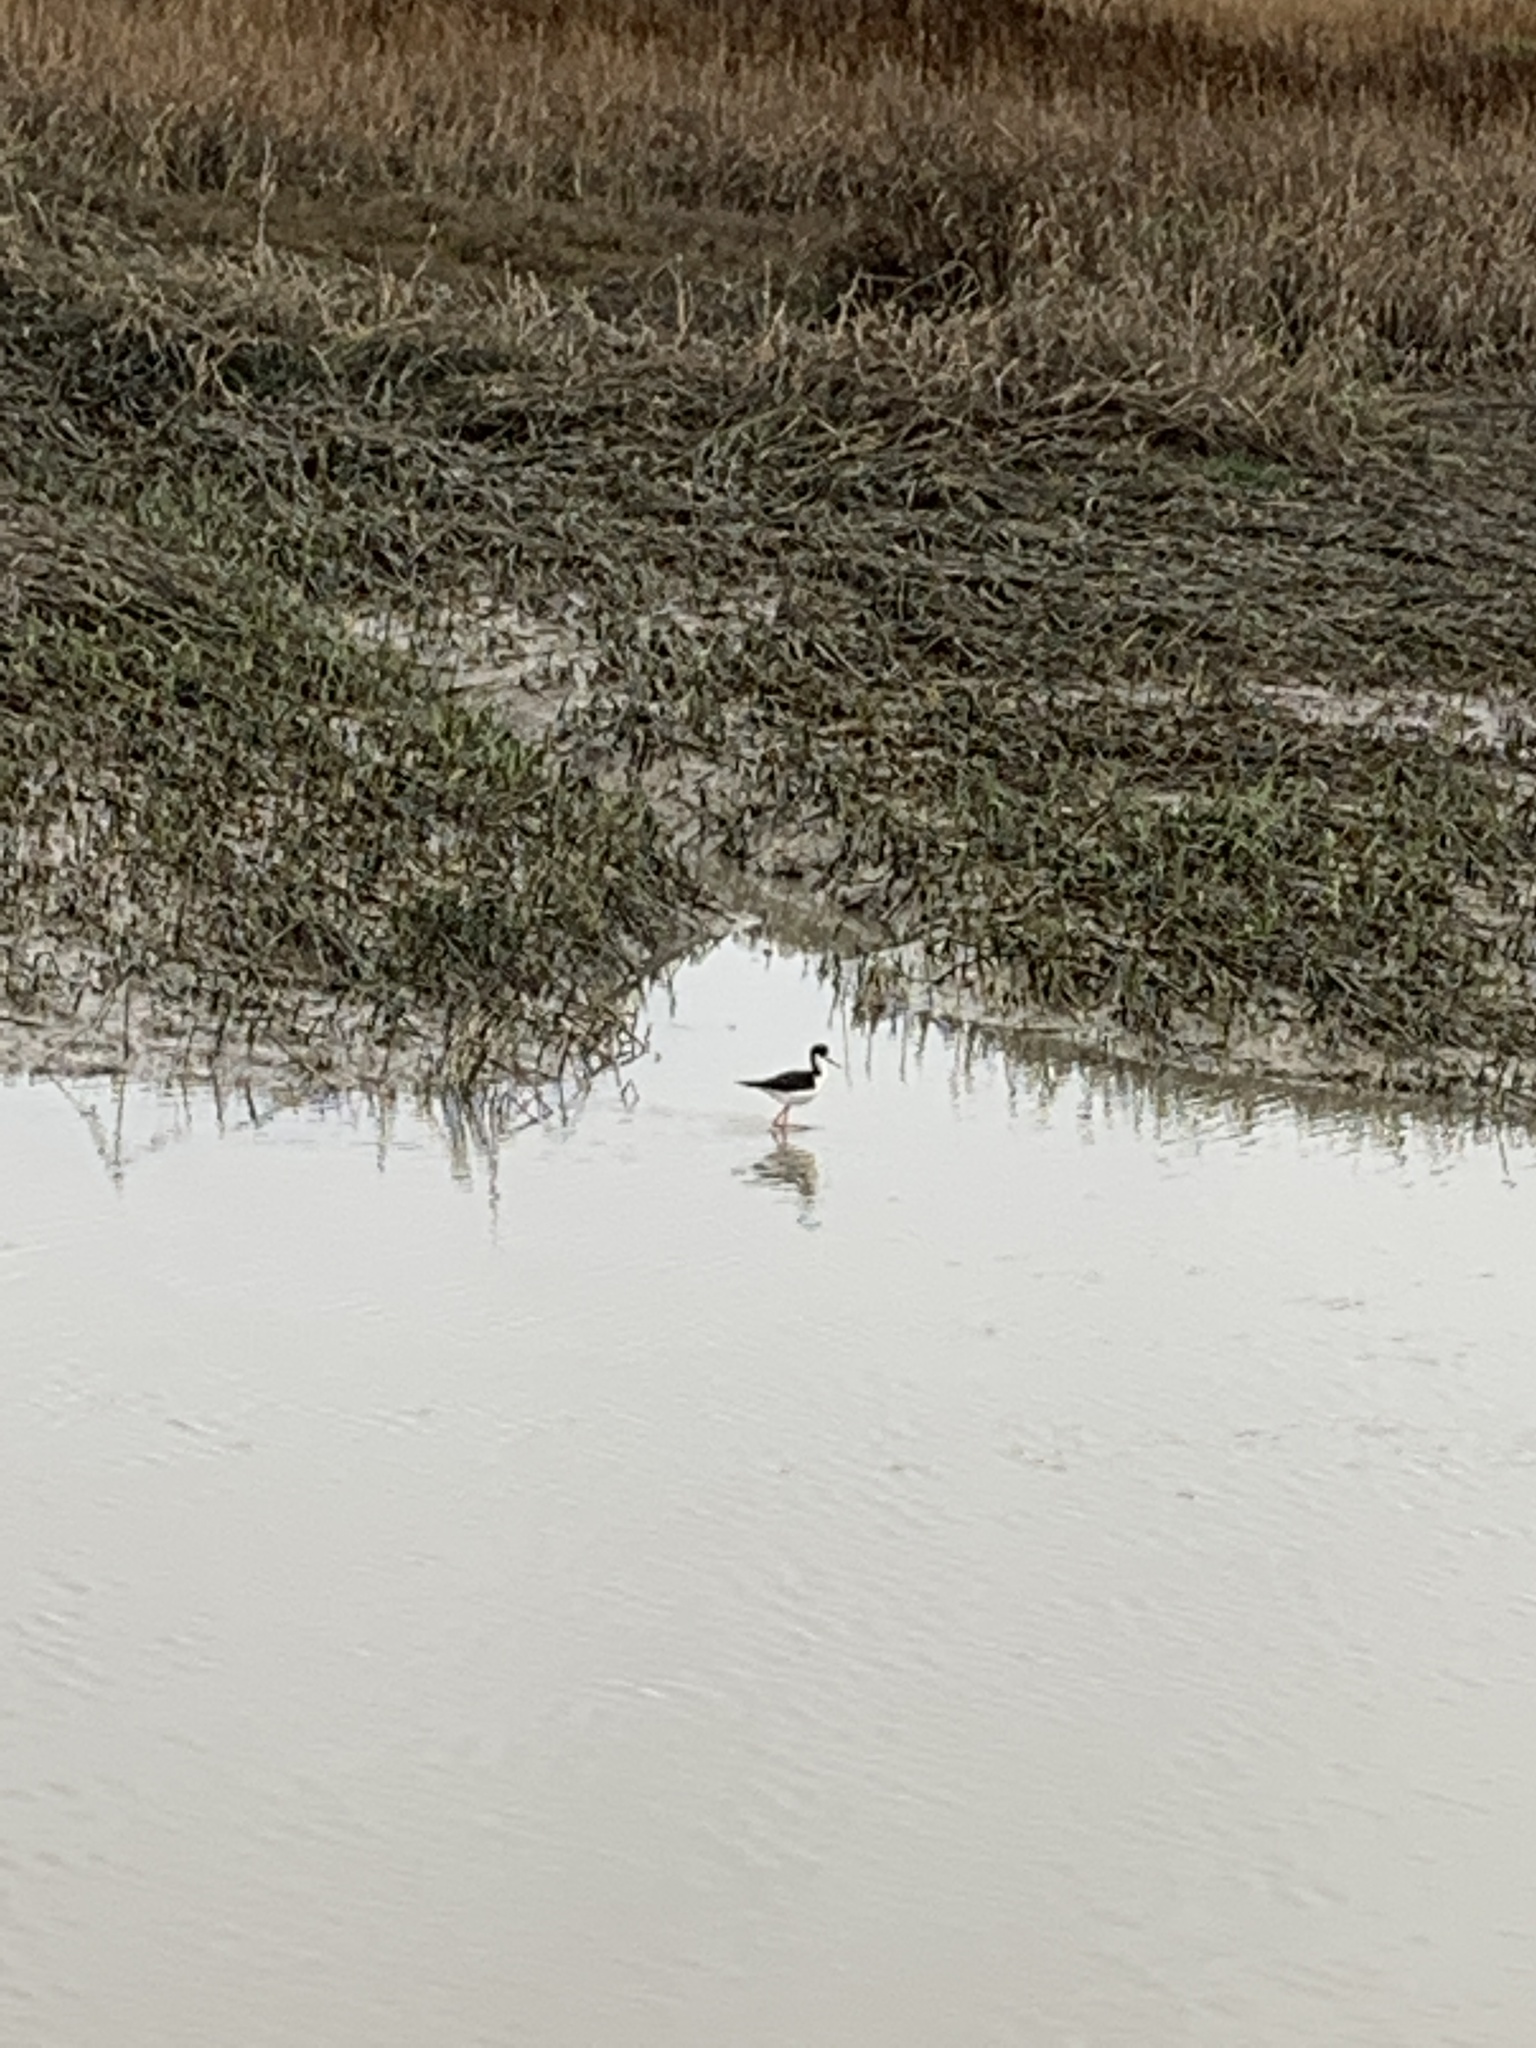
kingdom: Animalia
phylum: Chordata
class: Aves
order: Charadriiformes
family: Recurvirostridae
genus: Himantopus
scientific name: Himantopus mexicanus
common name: Black-necked stilt
